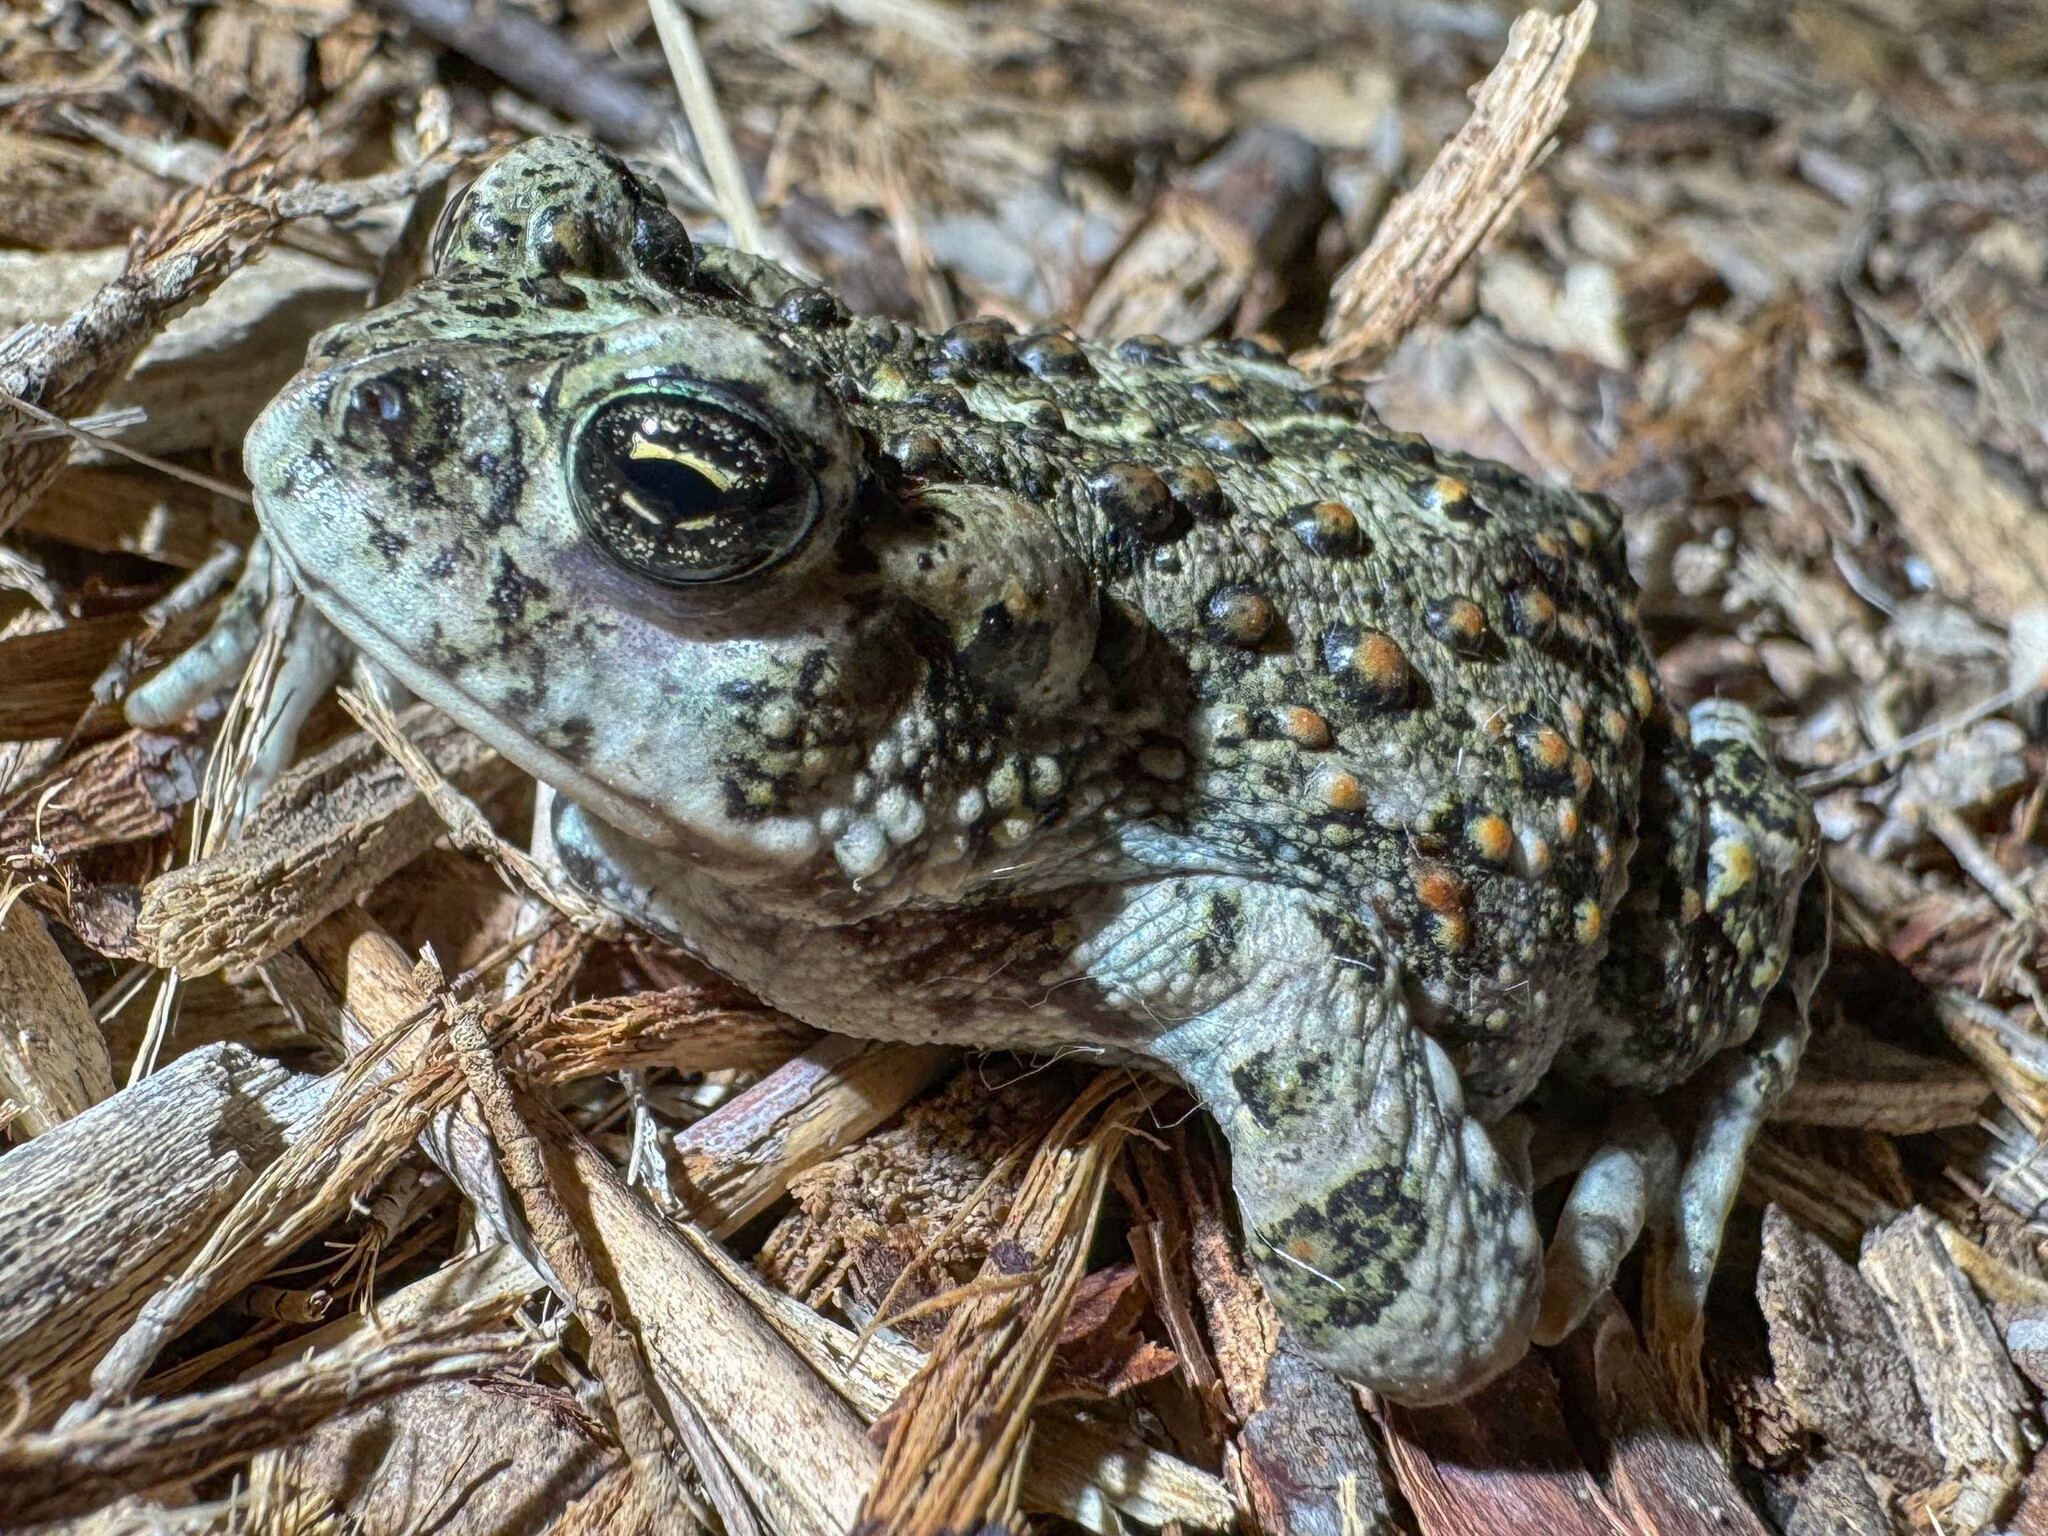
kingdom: Animalia
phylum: Chordata
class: Amphibia
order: Anura
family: Bufonidae
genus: Anaxyrus
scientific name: Anaxyrus boreas
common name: Western toad
